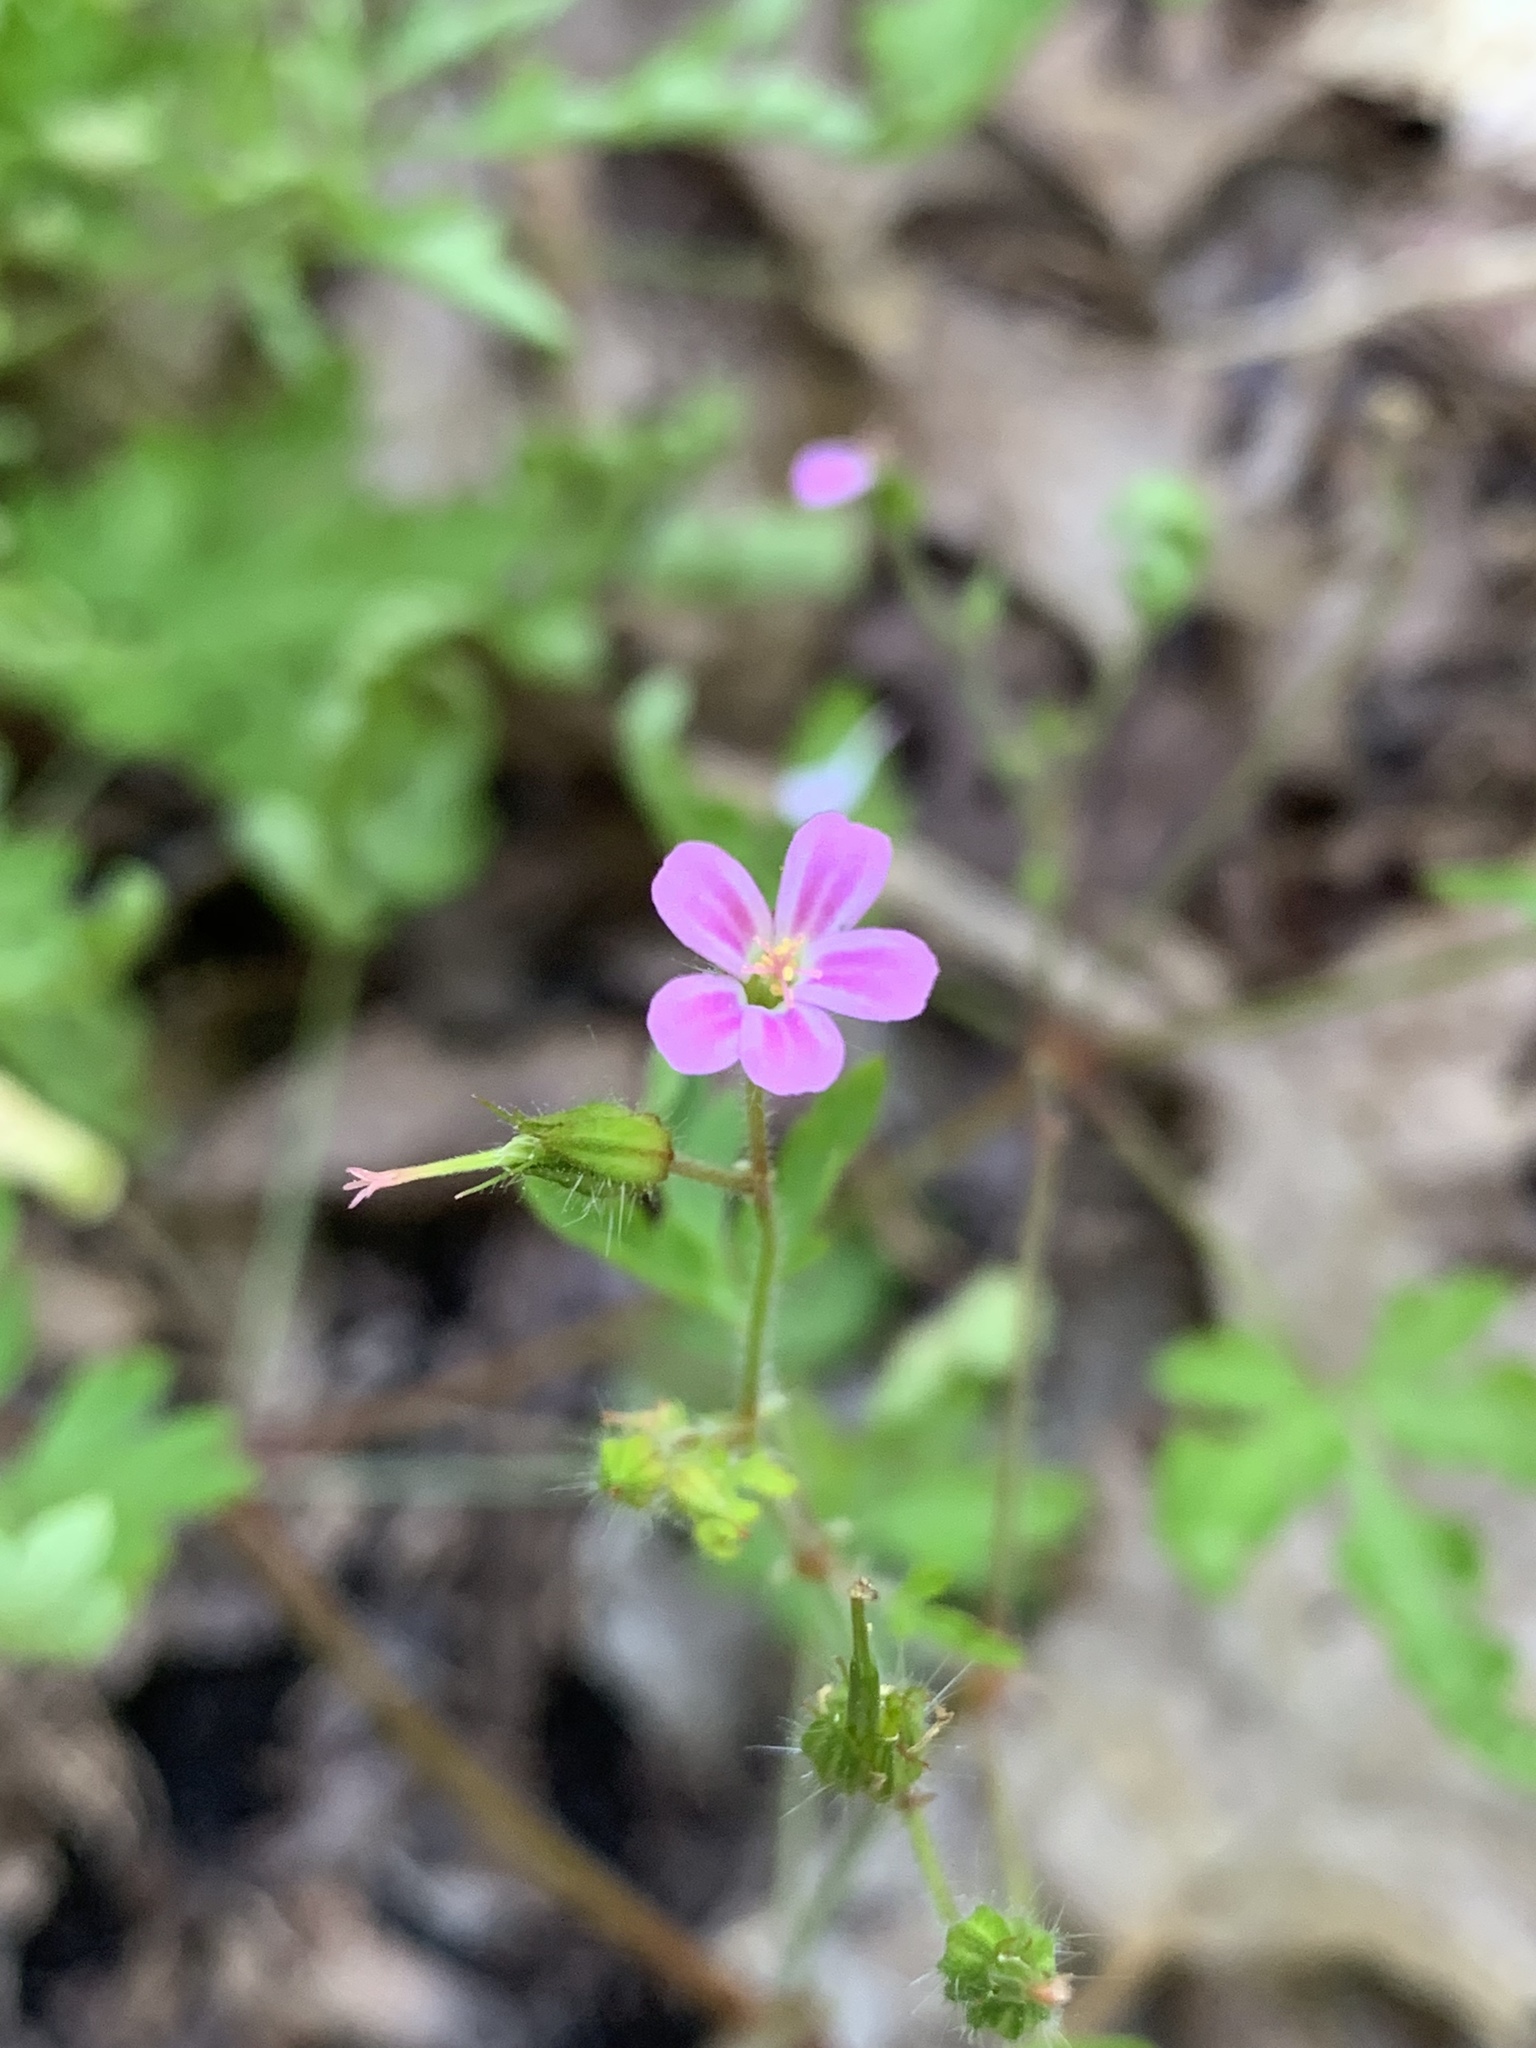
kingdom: Plantae
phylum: Tracheophyta
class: Magnoliopsida
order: Geraniales
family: Geraniaceae
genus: Geranium
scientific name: Geranium robertianum
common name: Herb-robert
